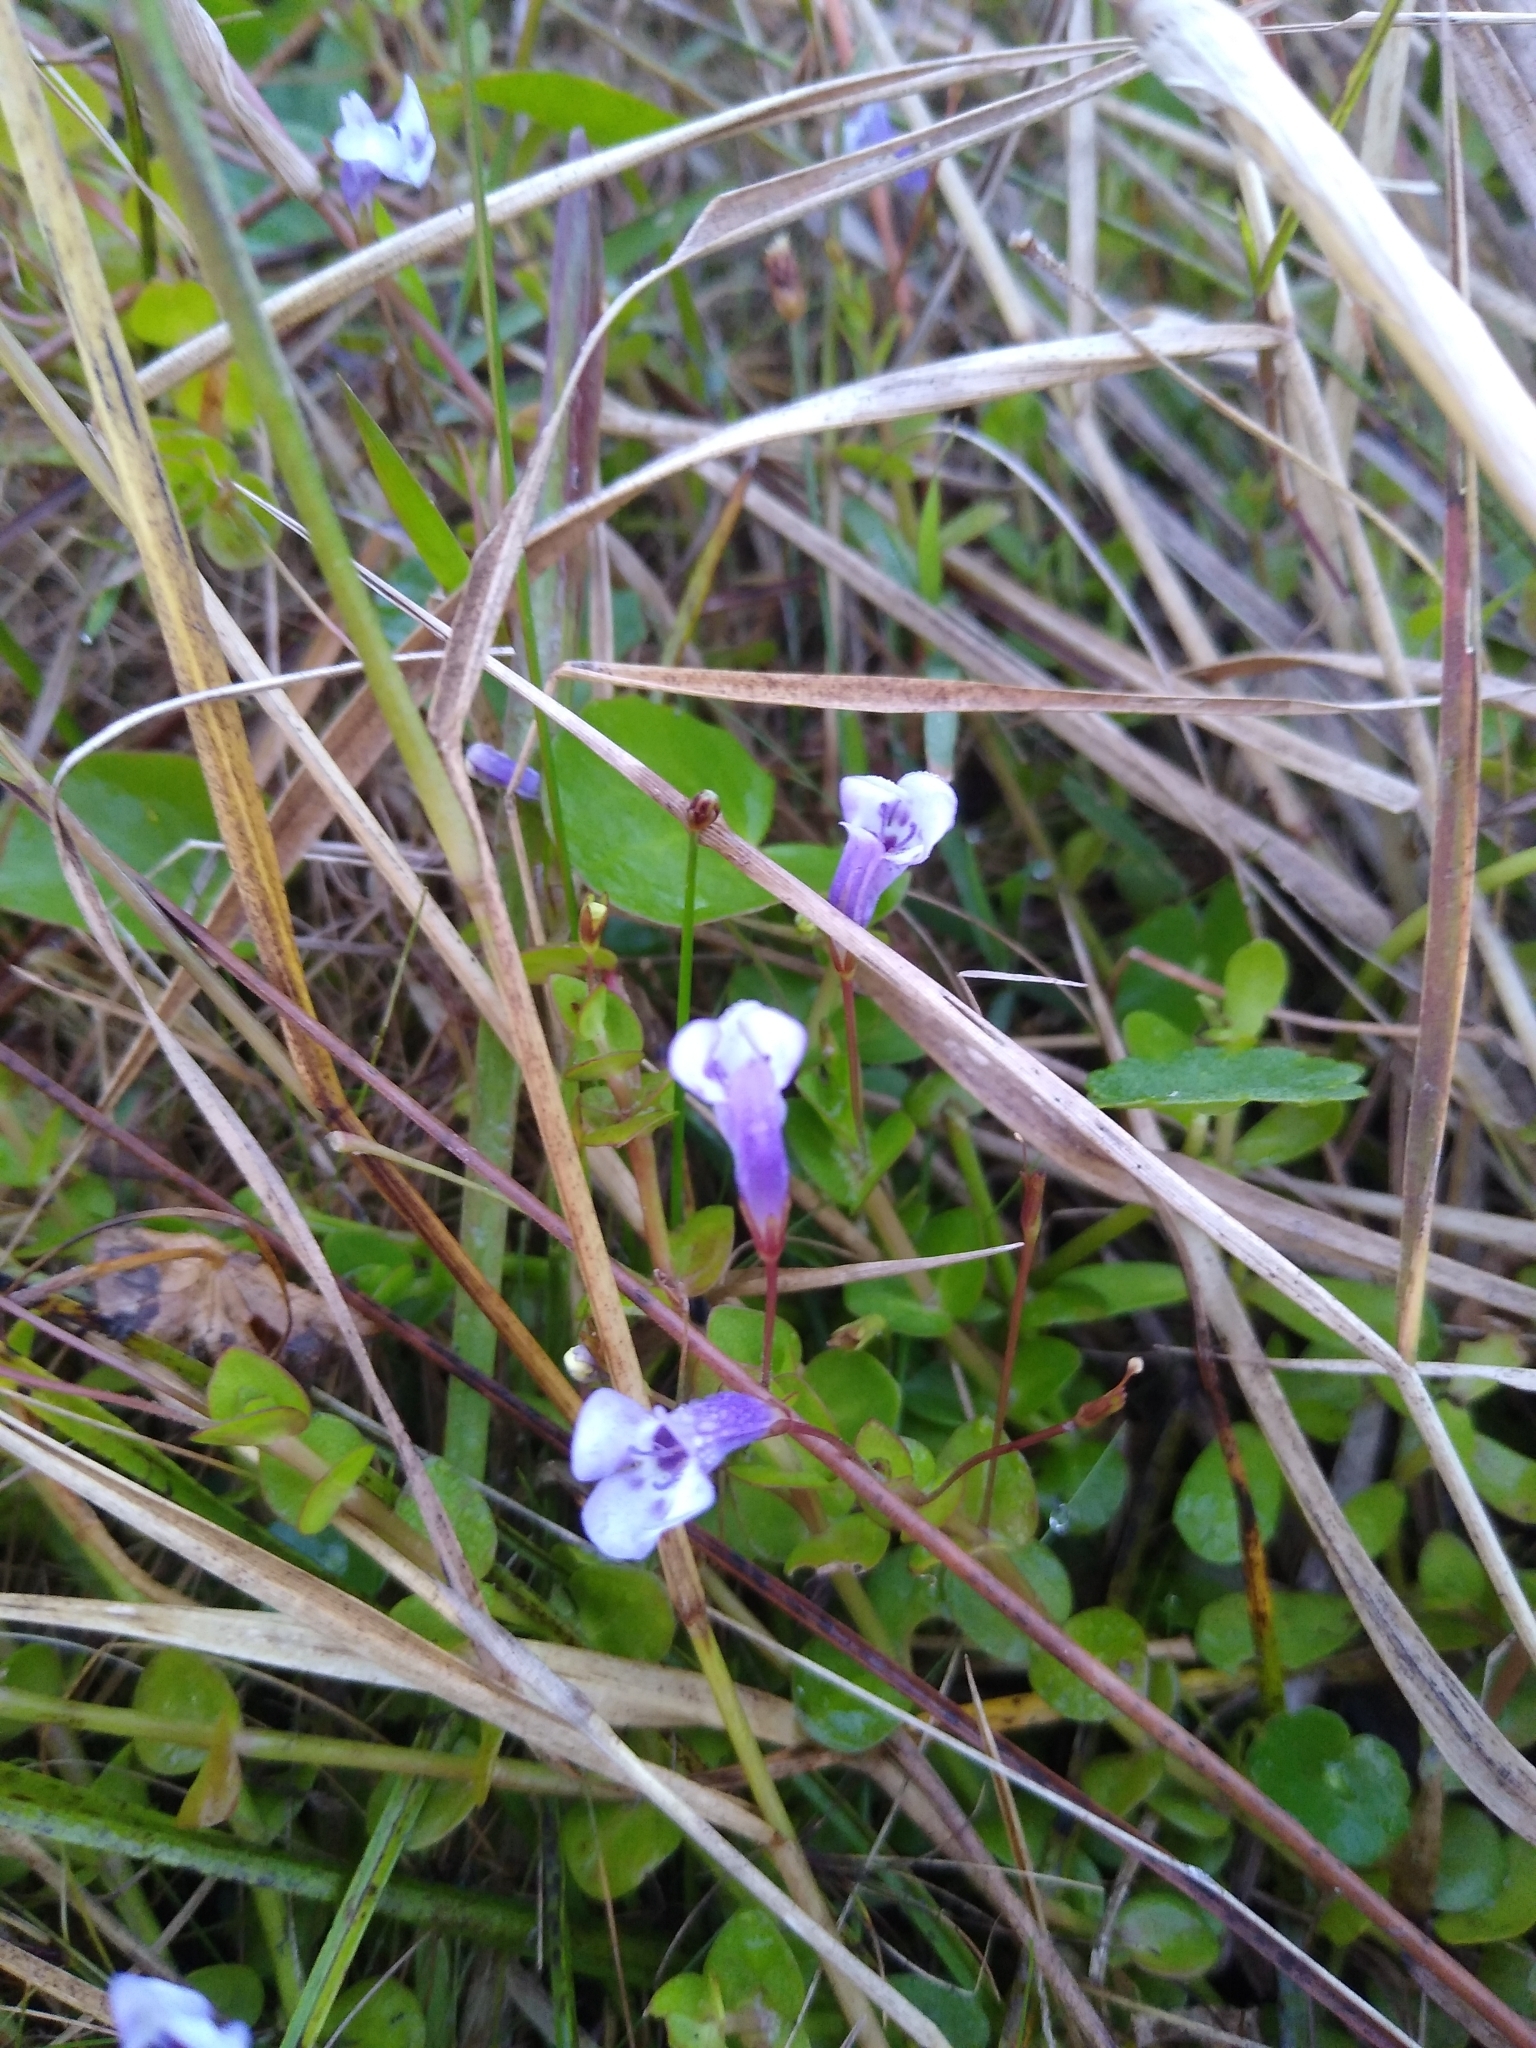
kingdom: Plantae
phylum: Tracheophyta
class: Magnoliopsida
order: Lamiales
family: Linderniaceae
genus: Lindernia
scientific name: Lindernia grandiflora
